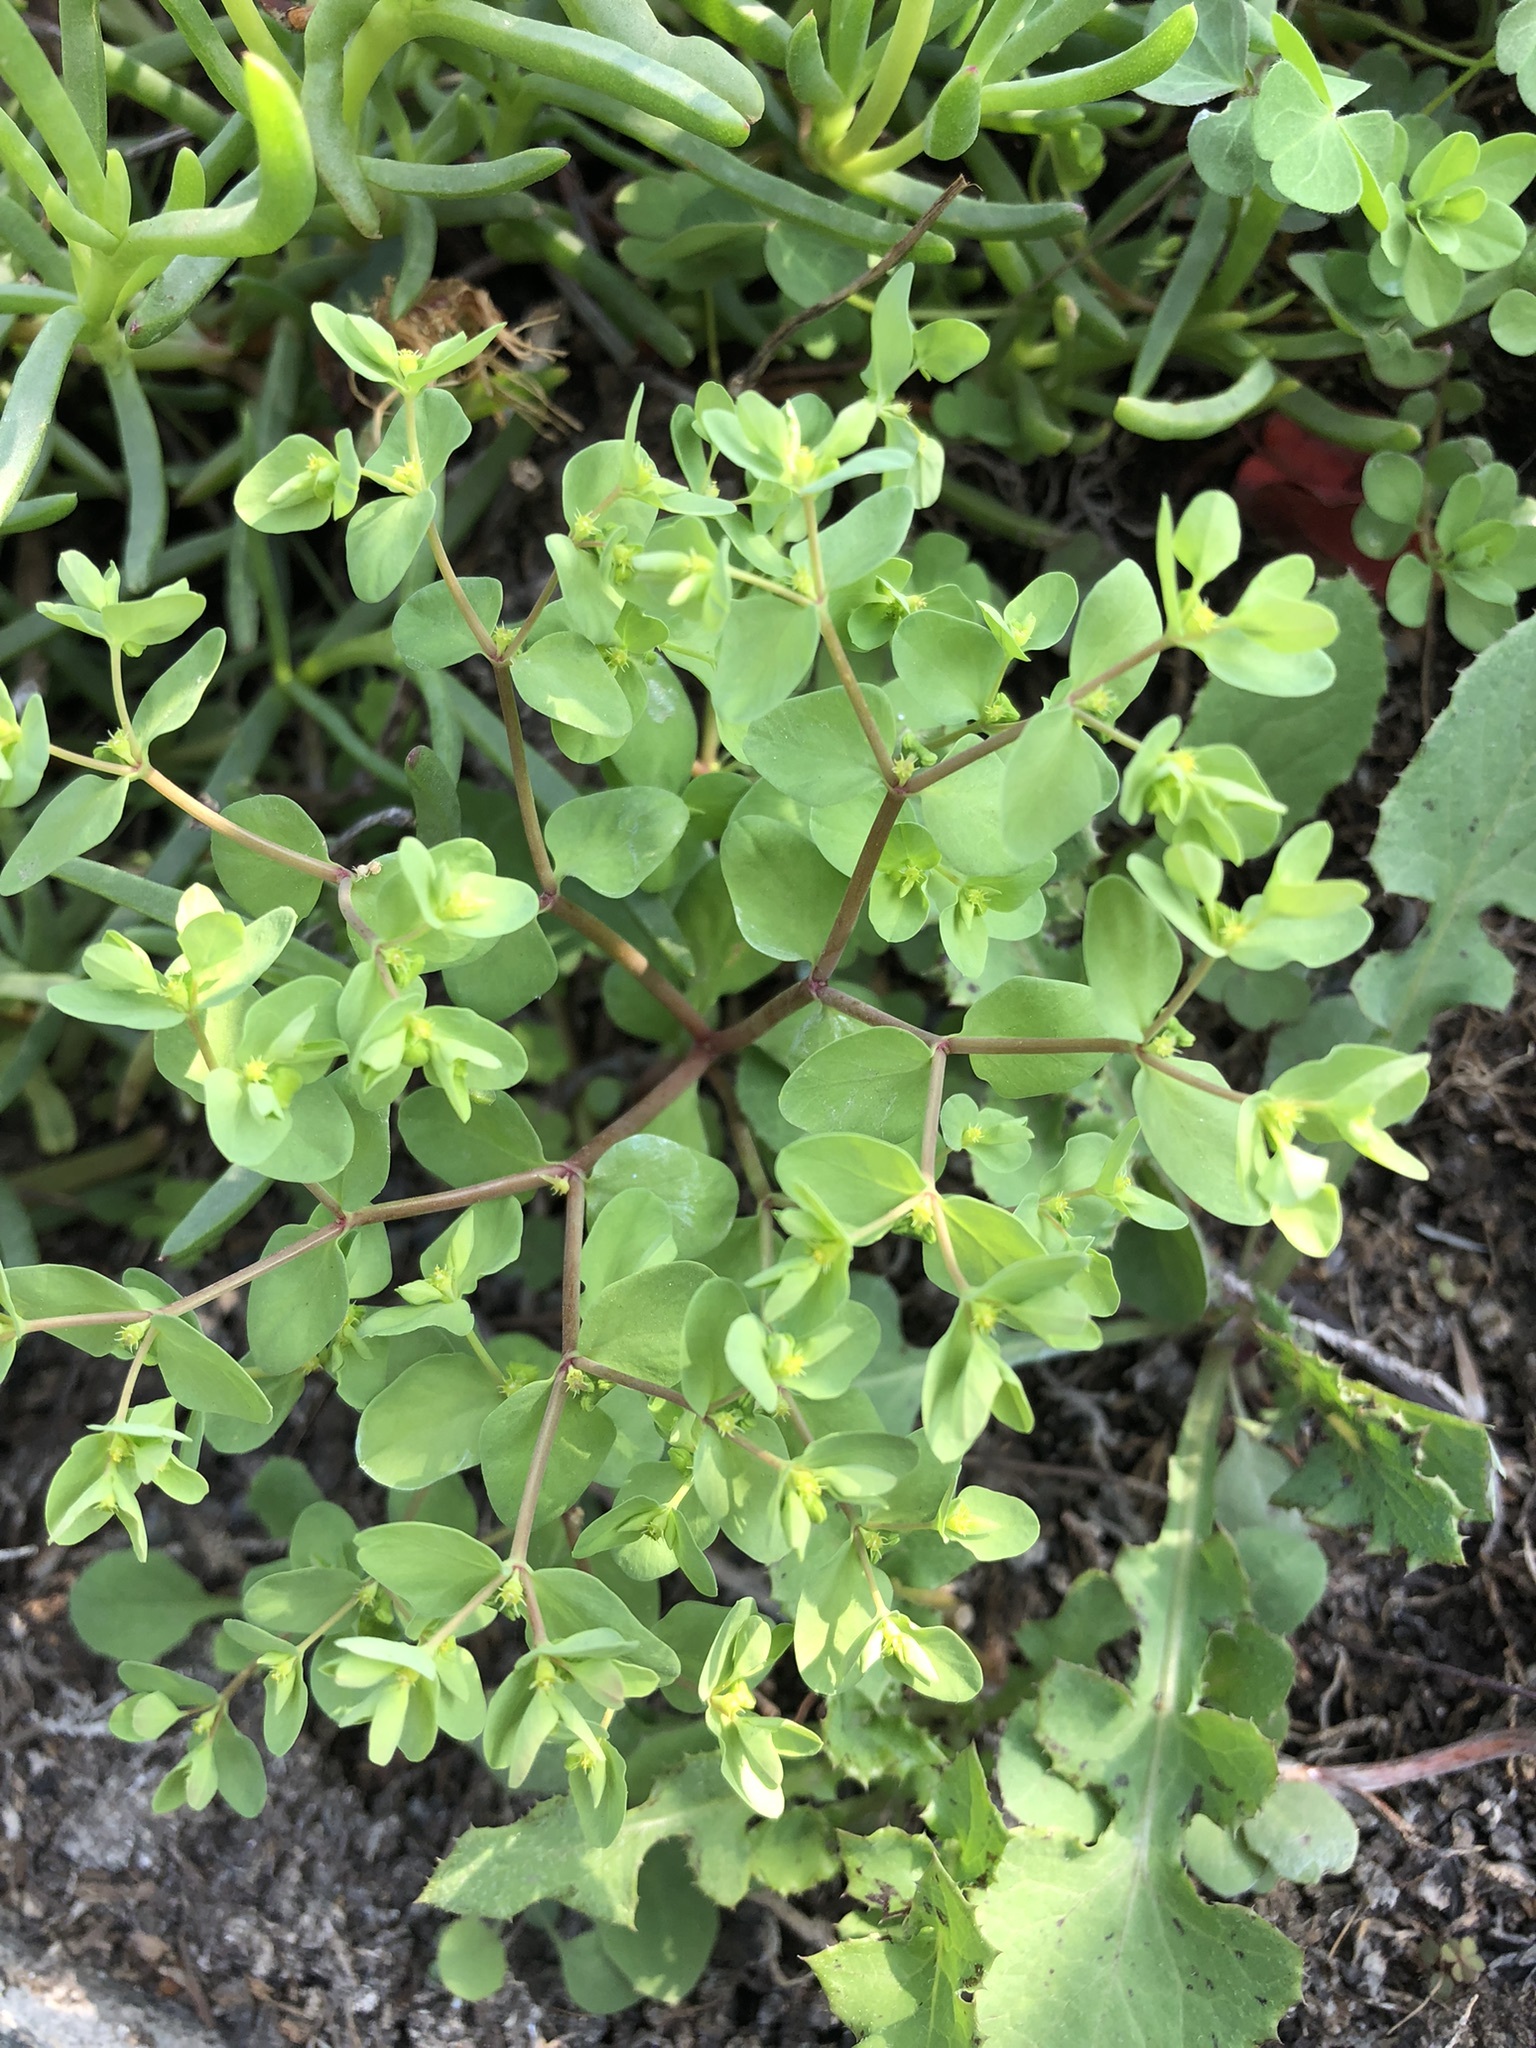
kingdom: Plantae
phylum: Tracheophyta
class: Magnoliopsida
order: Malpighiales
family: Euphorbiaceae
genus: Euphorbia
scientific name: Euphorbia peplus
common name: Petty spurge
